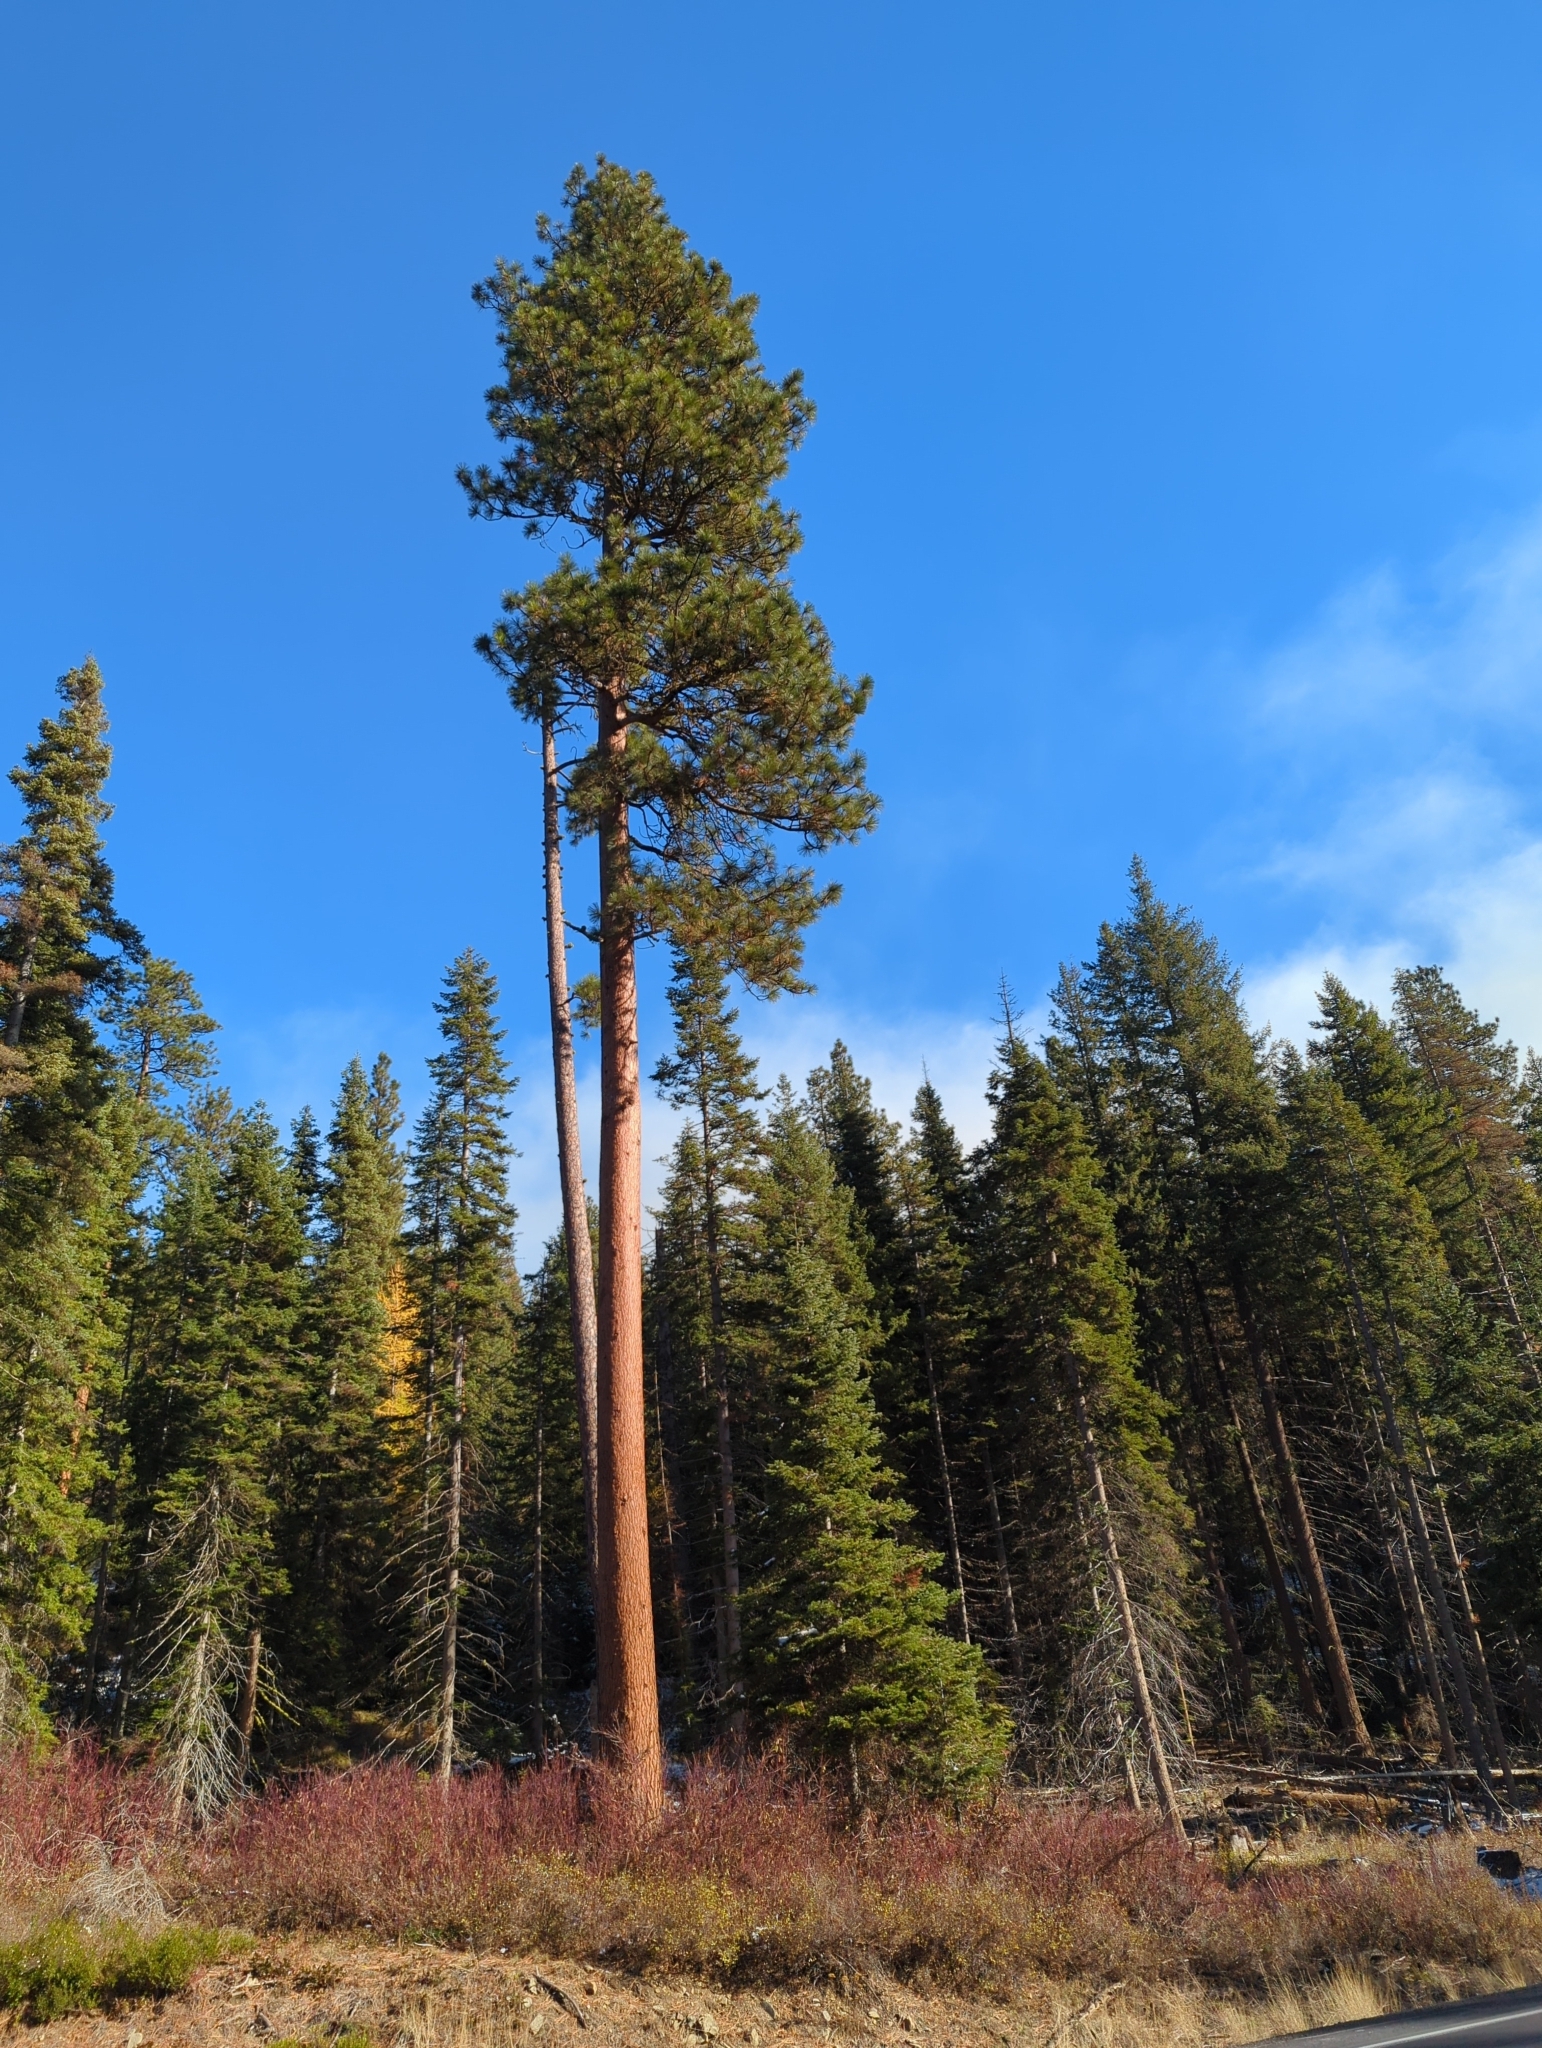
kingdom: Plantae
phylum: Tracheophyta
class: Pinopsida
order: Pinales
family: Pinaceae
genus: Pinus
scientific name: Pinus ponderosa
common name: Western yellow-pine
